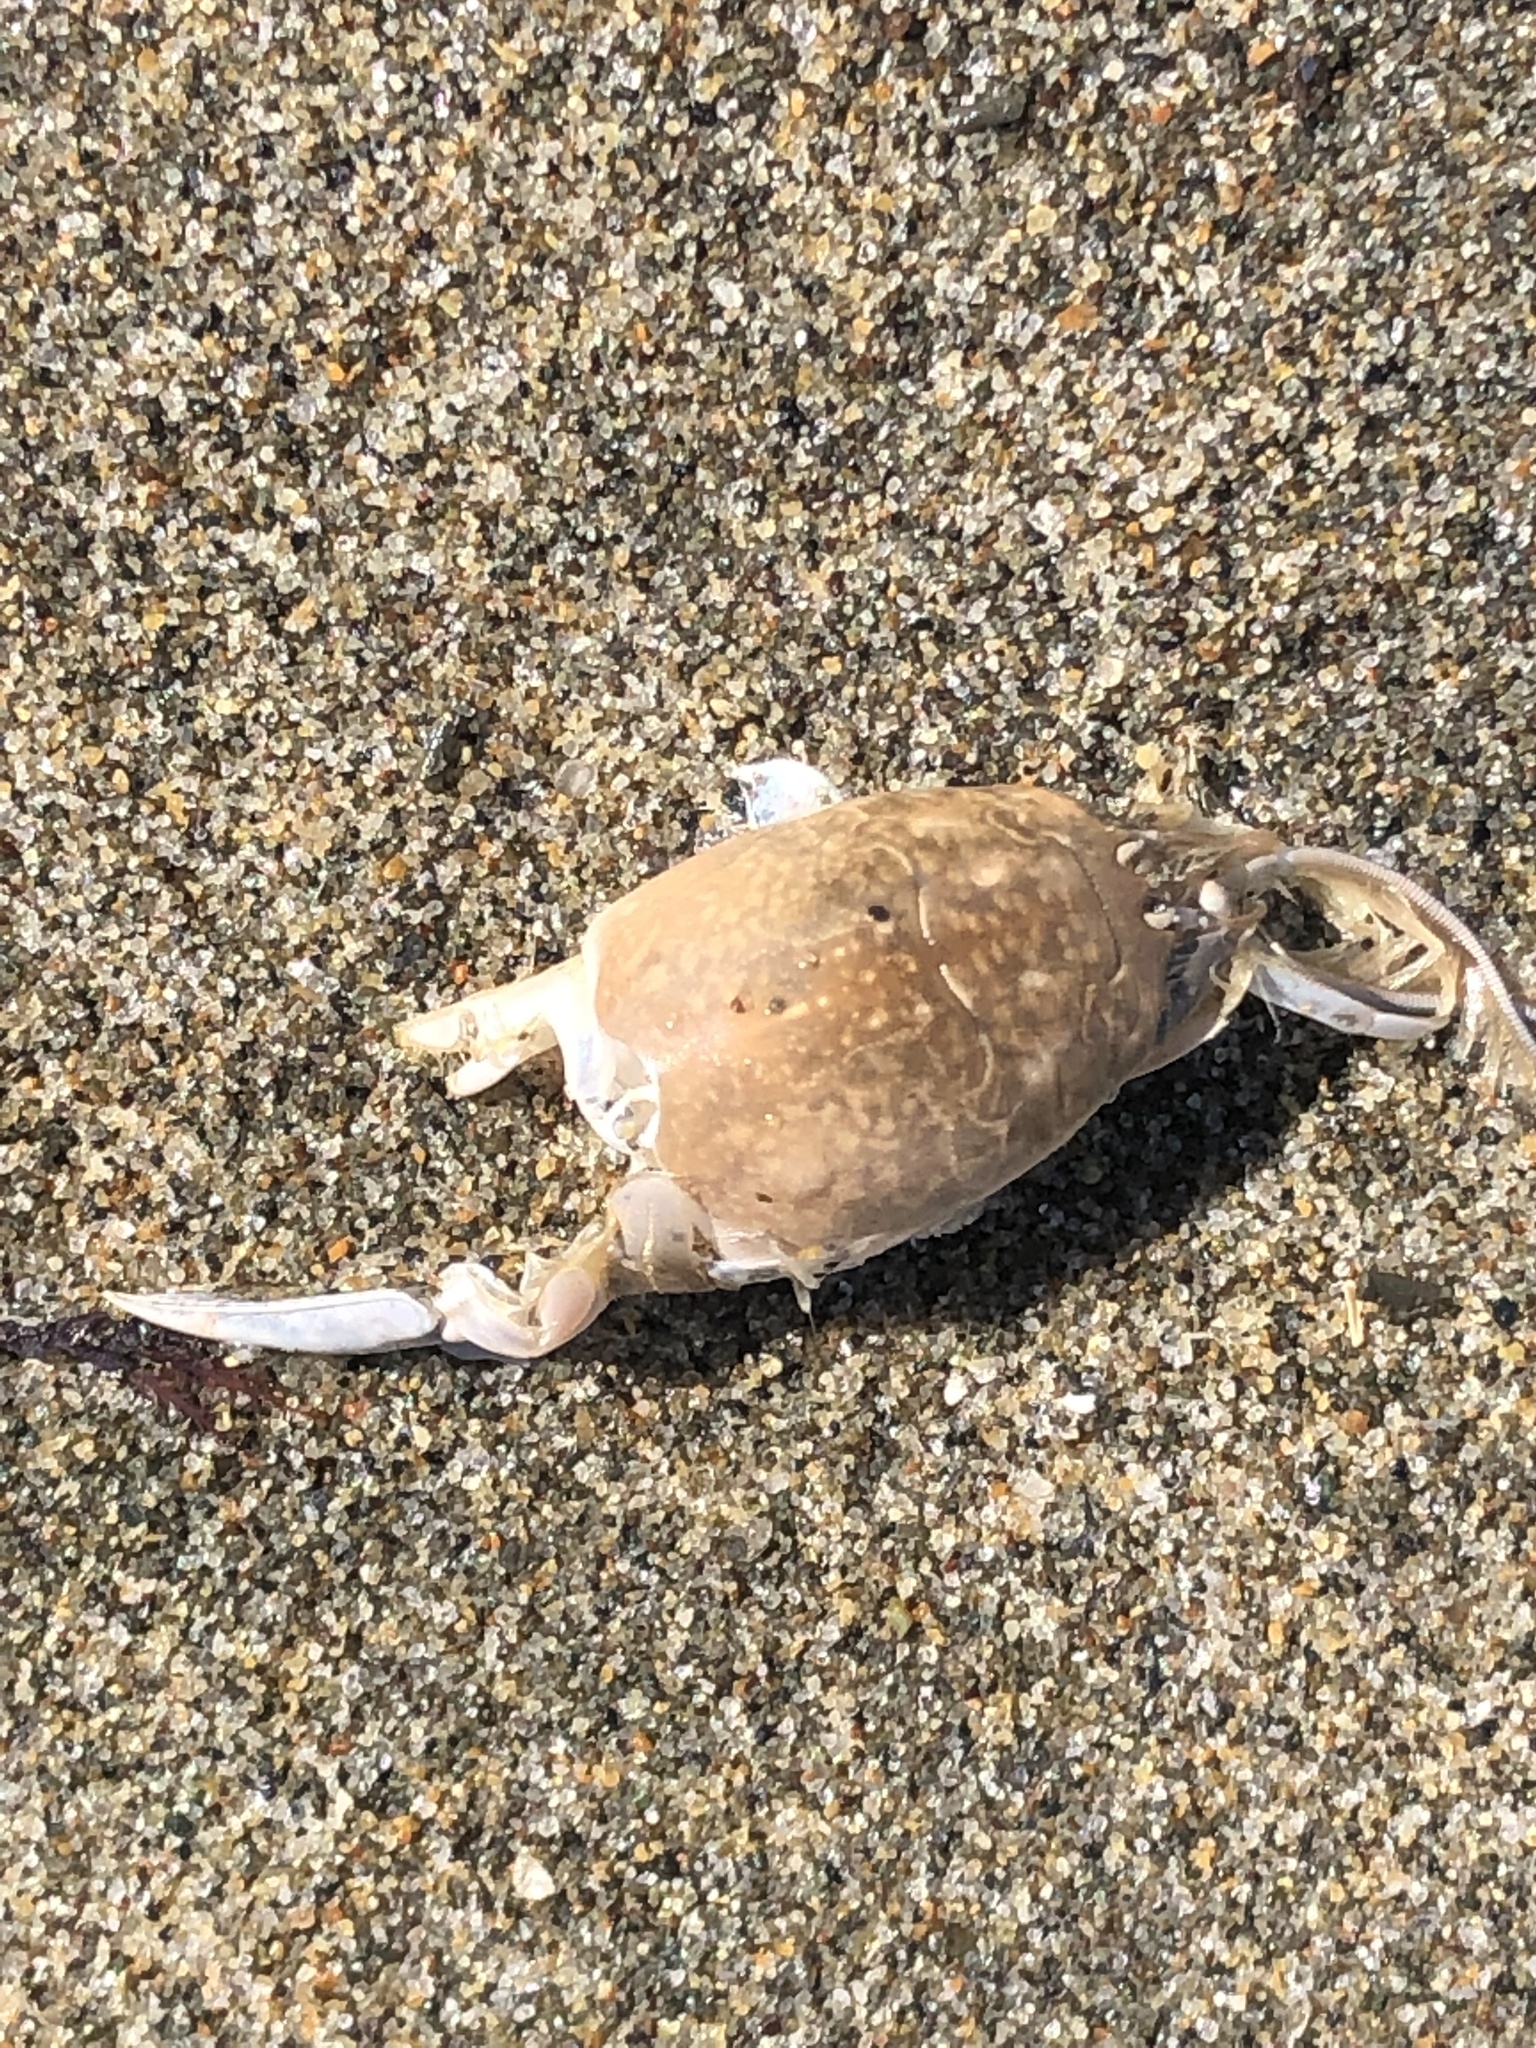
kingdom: Animalia
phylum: Arthropoda
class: Malacostraca
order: Decapoda
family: Hippidae
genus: Emerita
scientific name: Emerita analoga
